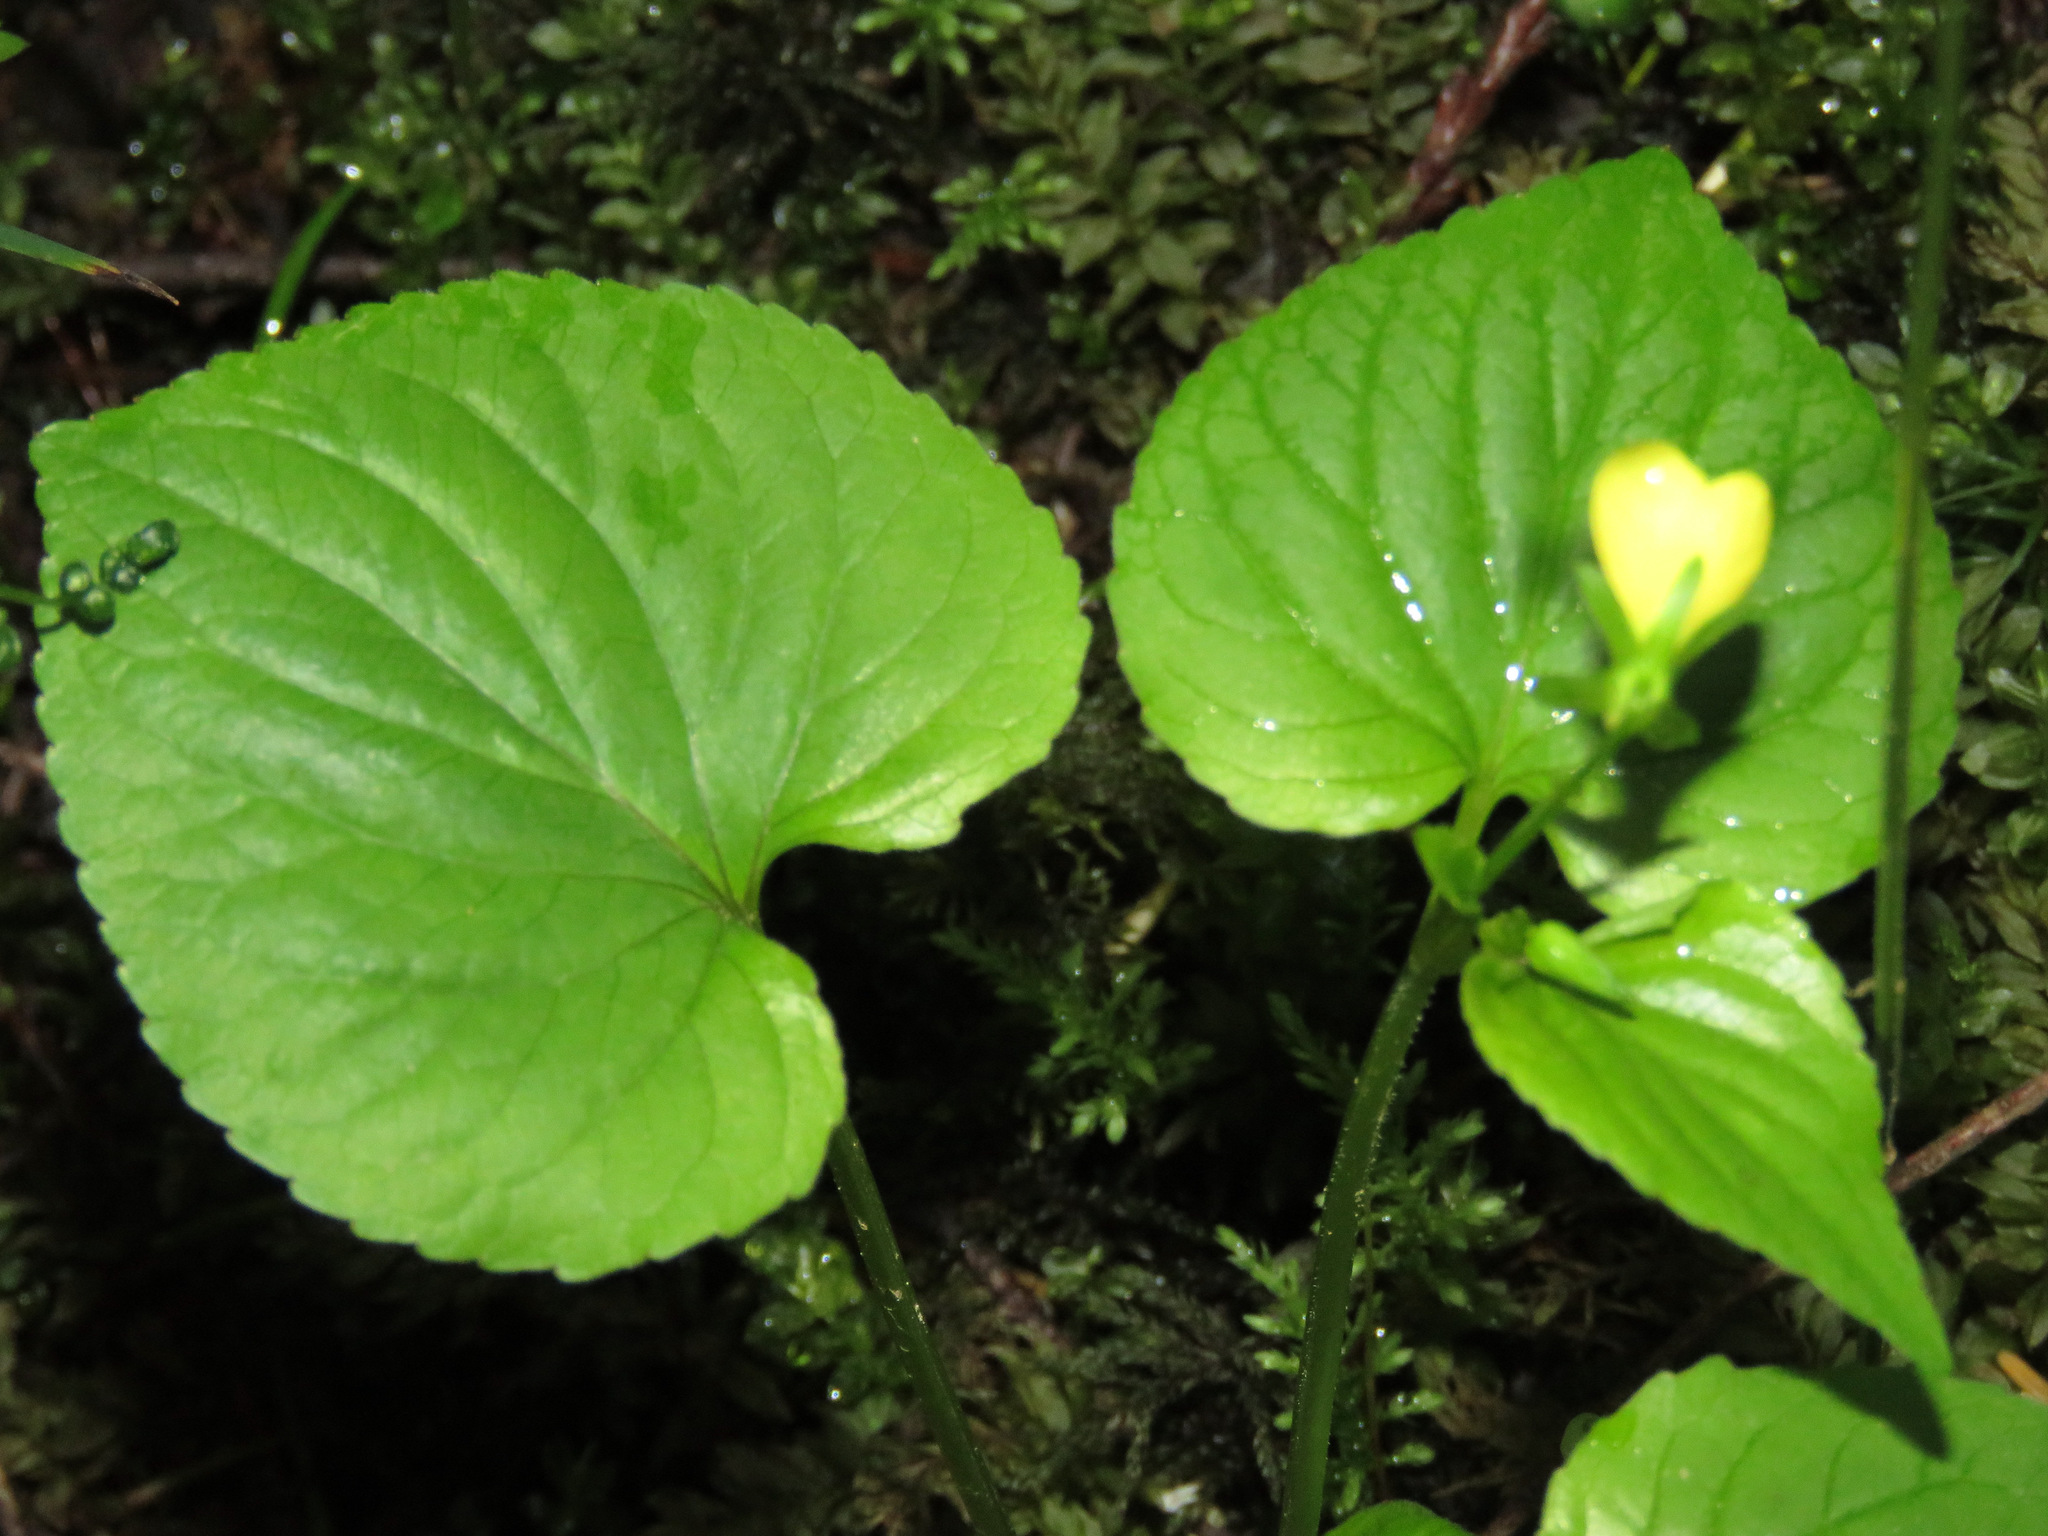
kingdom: Plantae
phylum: Tracheophyta
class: Magnoliopsida
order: Malpighiales
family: Violaceae
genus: Viola
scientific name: Viola glabella
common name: Stream violet
